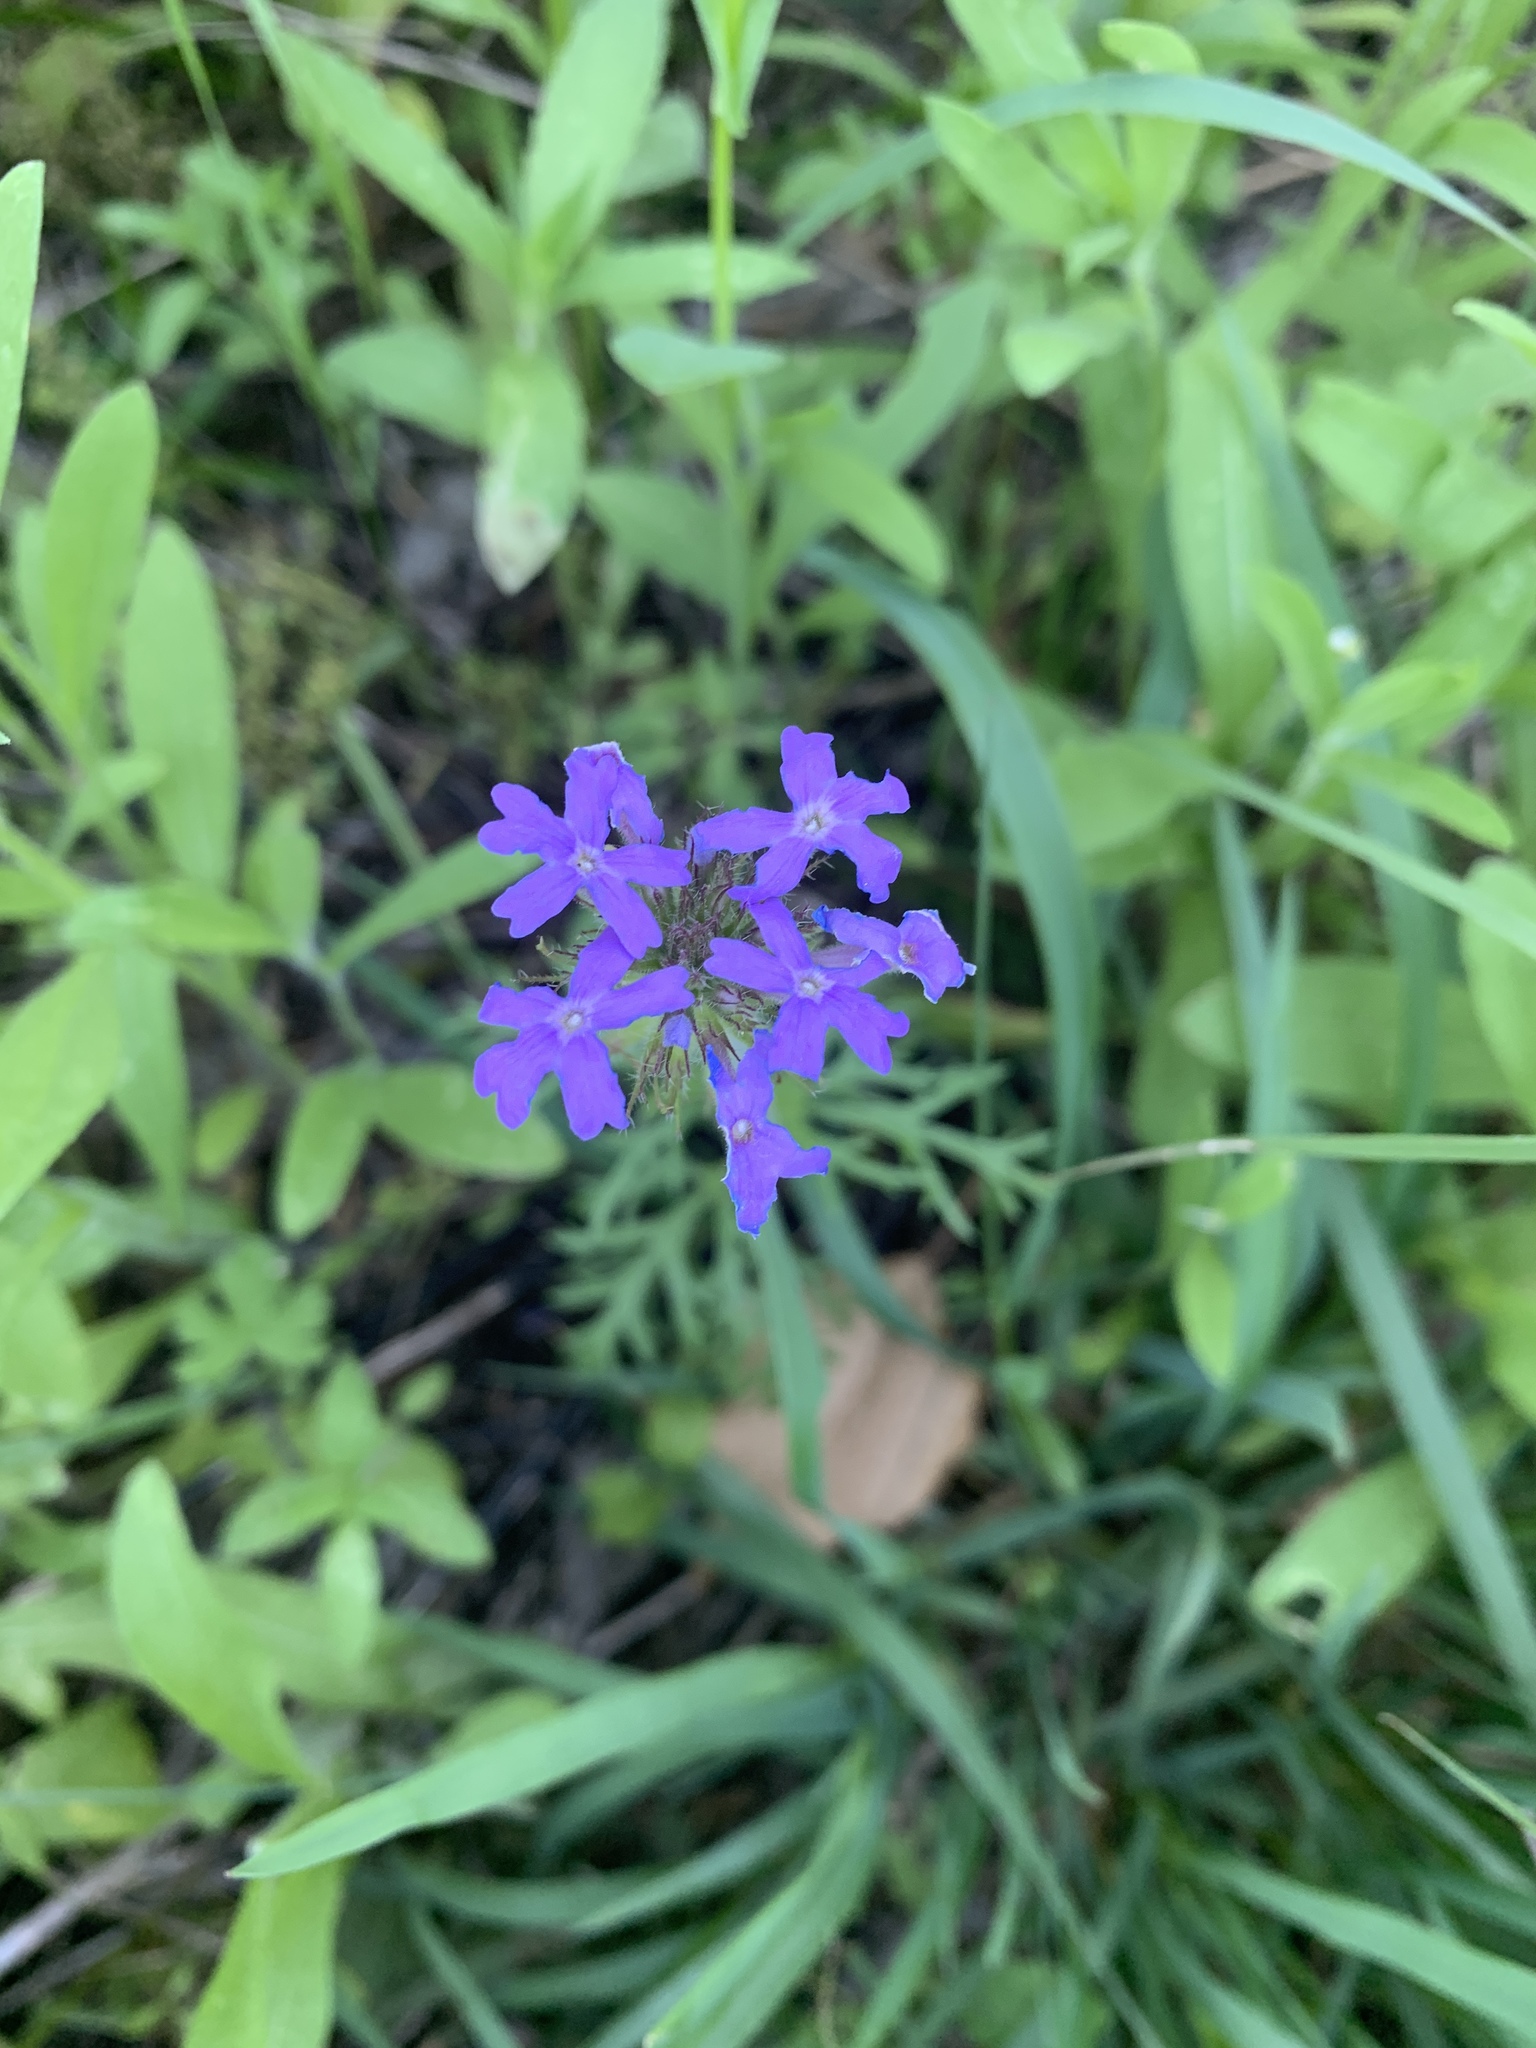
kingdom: Plantae
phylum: Tracheophyta
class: Magnoliopsida
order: Lamiales
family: Verbenaceae
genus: Verbena
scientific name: Verbena bipinnatifida
